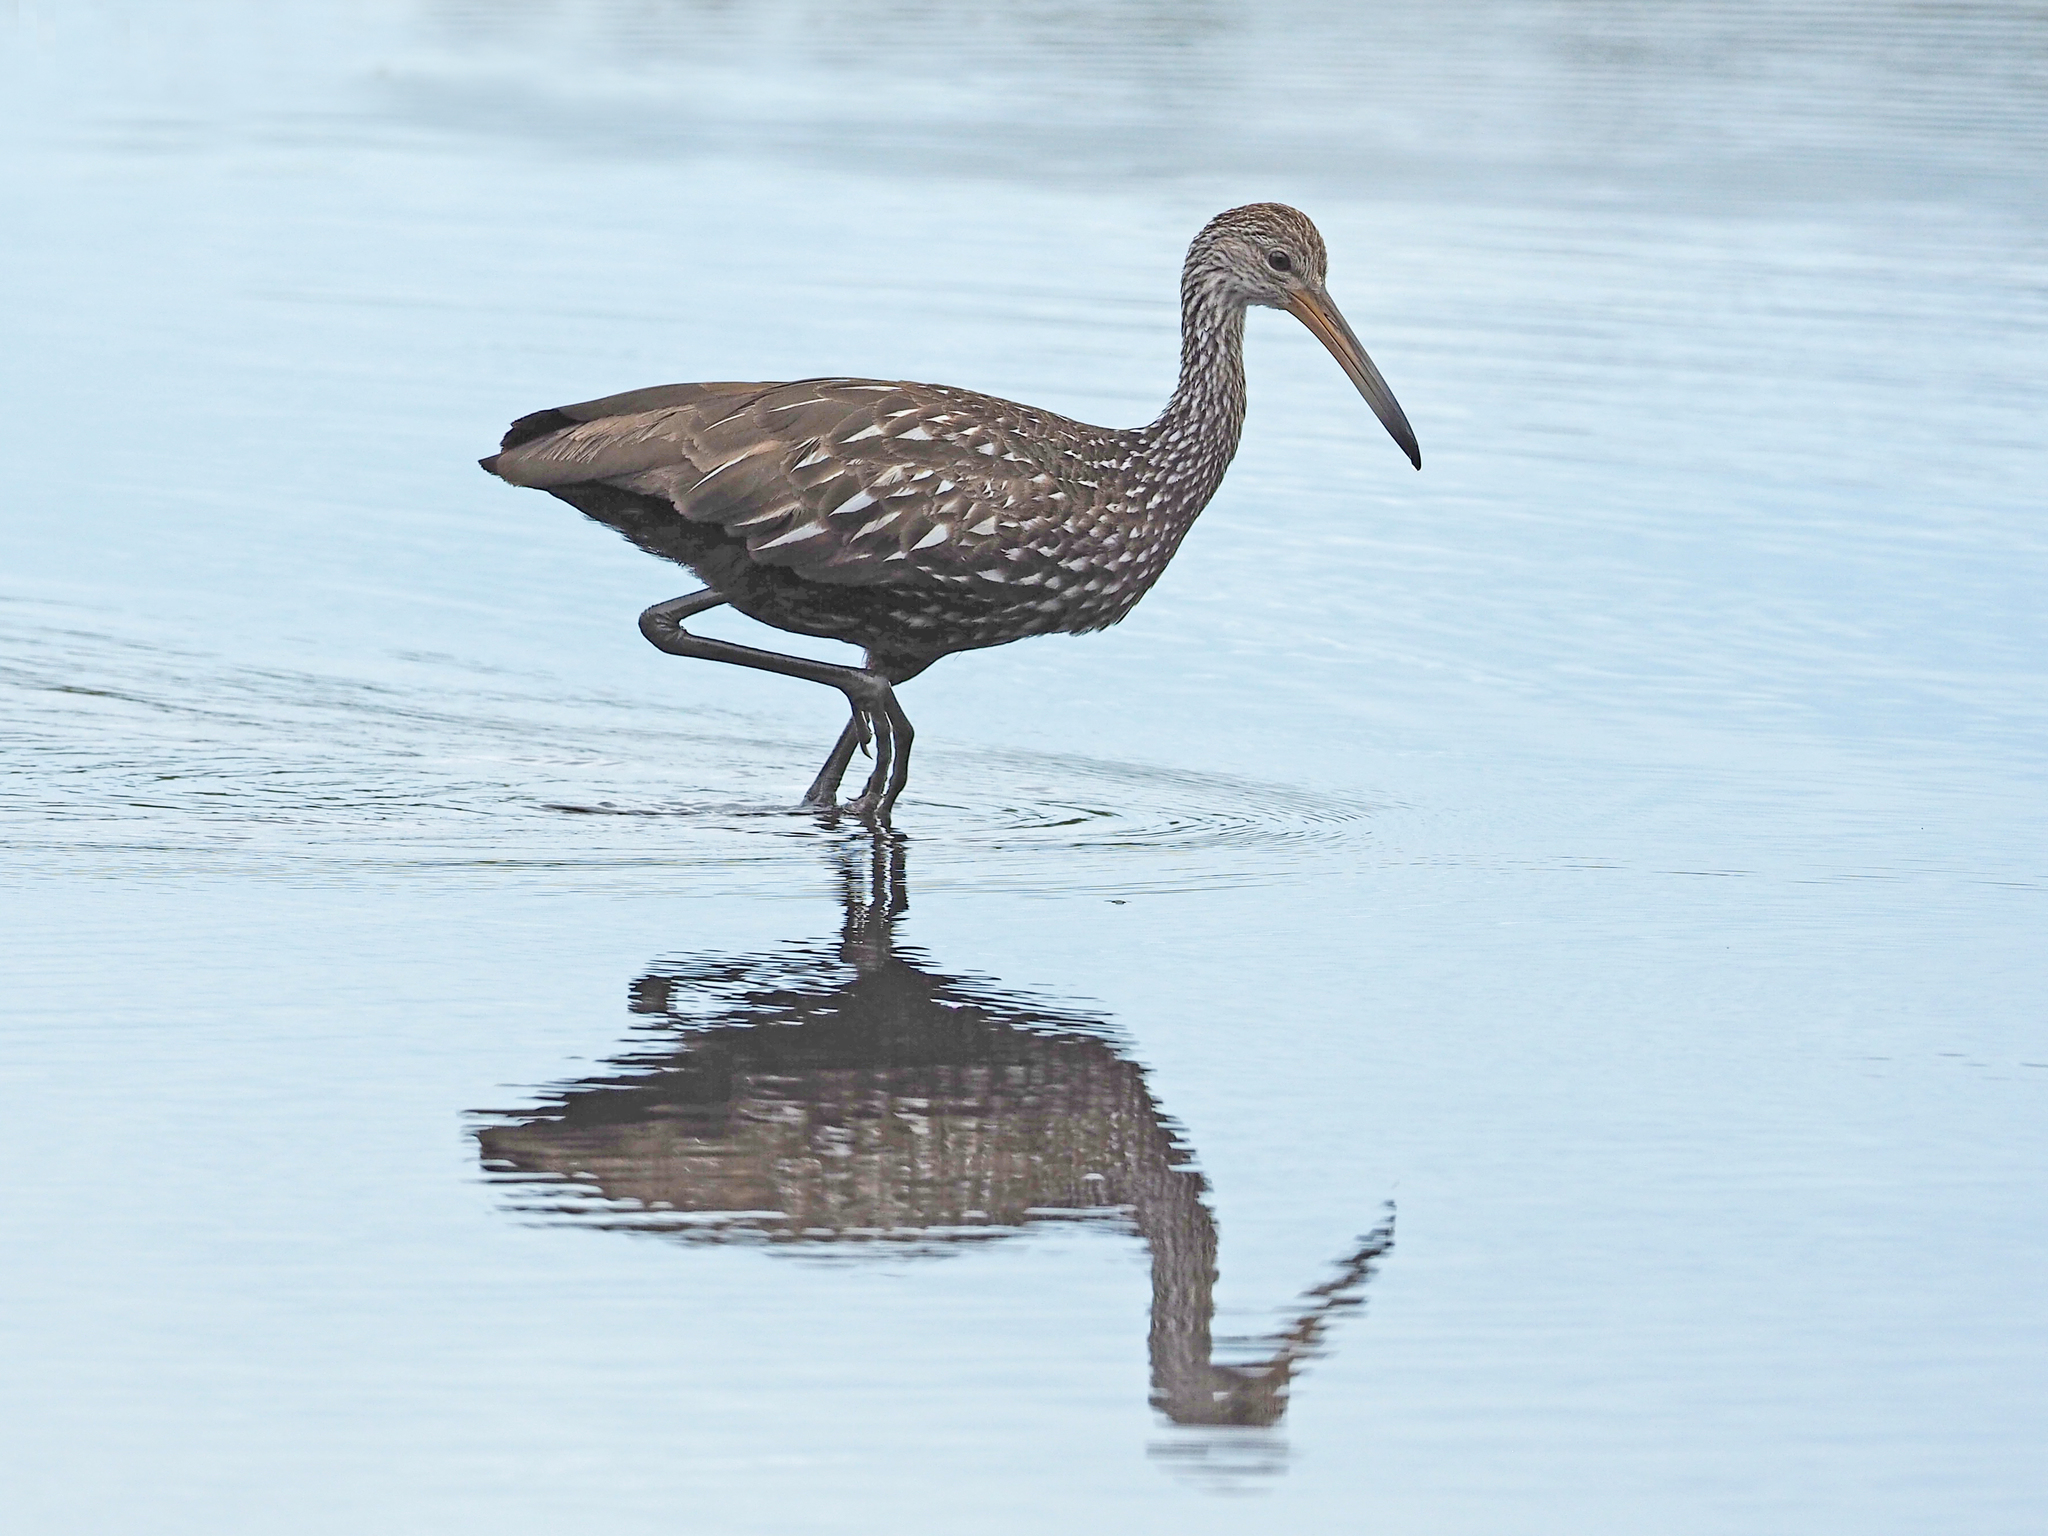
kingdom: Animalia
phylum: Chordata
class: Aves
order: Gruiformes
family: Aramidae
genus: Aramus
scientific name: Aramus guarauna
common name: Limpkin
